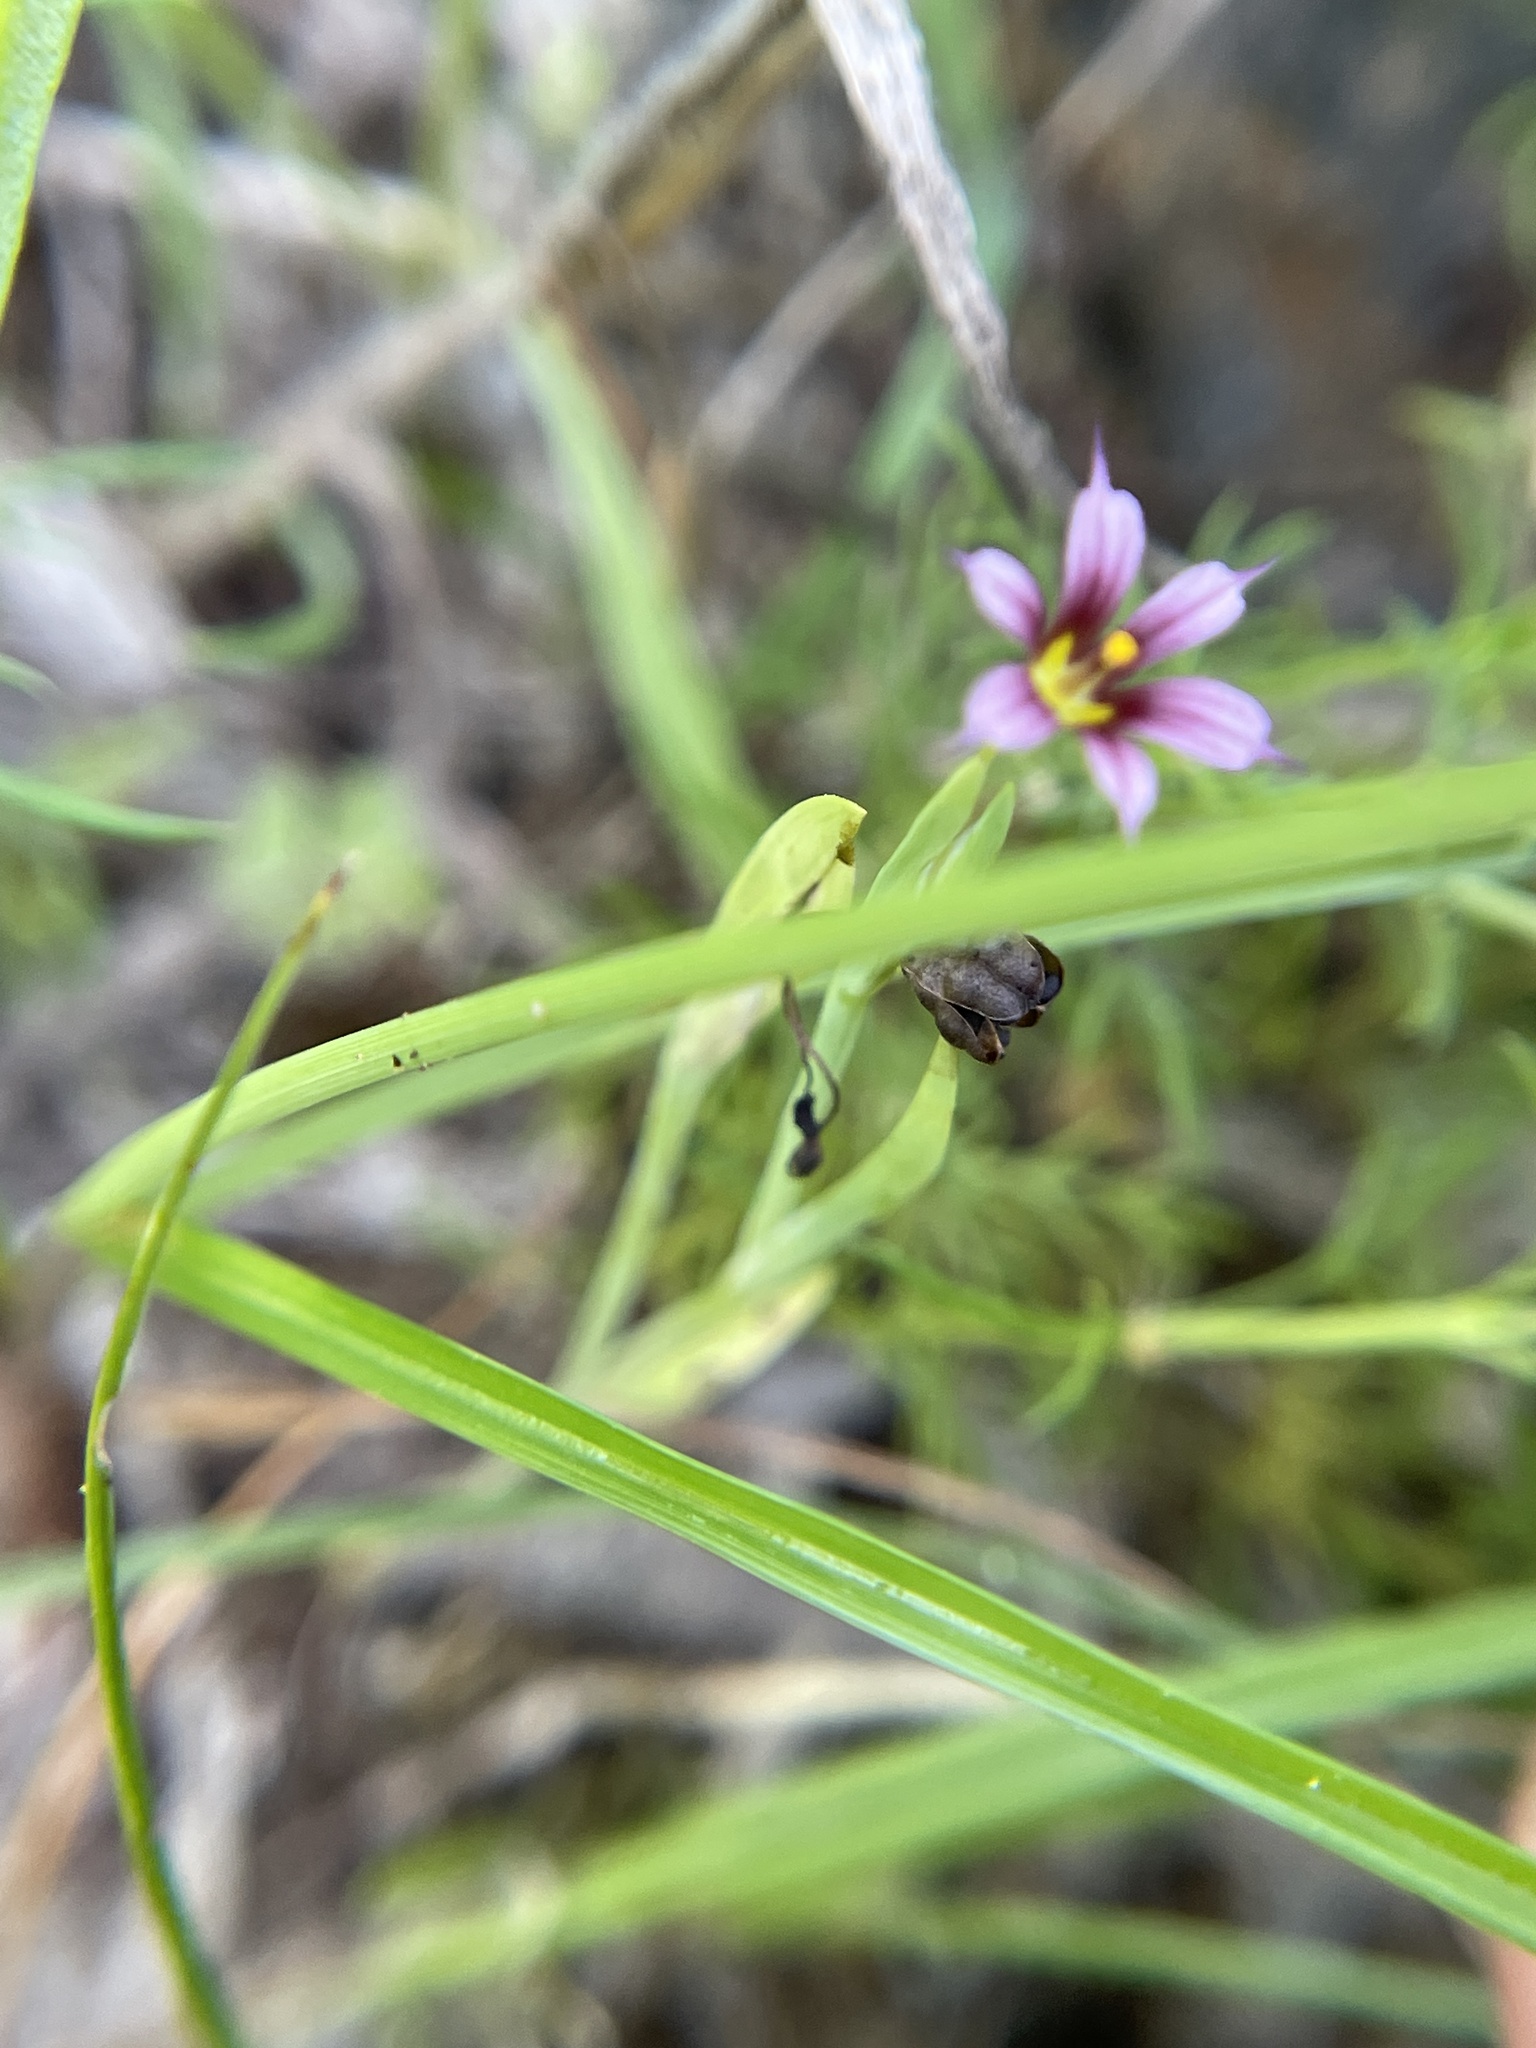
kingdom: Plantae
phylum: Tracheophyta
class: Liliopsida
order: Asparagales
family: Iridaceae
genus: Sisyrinchium
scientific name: Sisyrinchium minus
